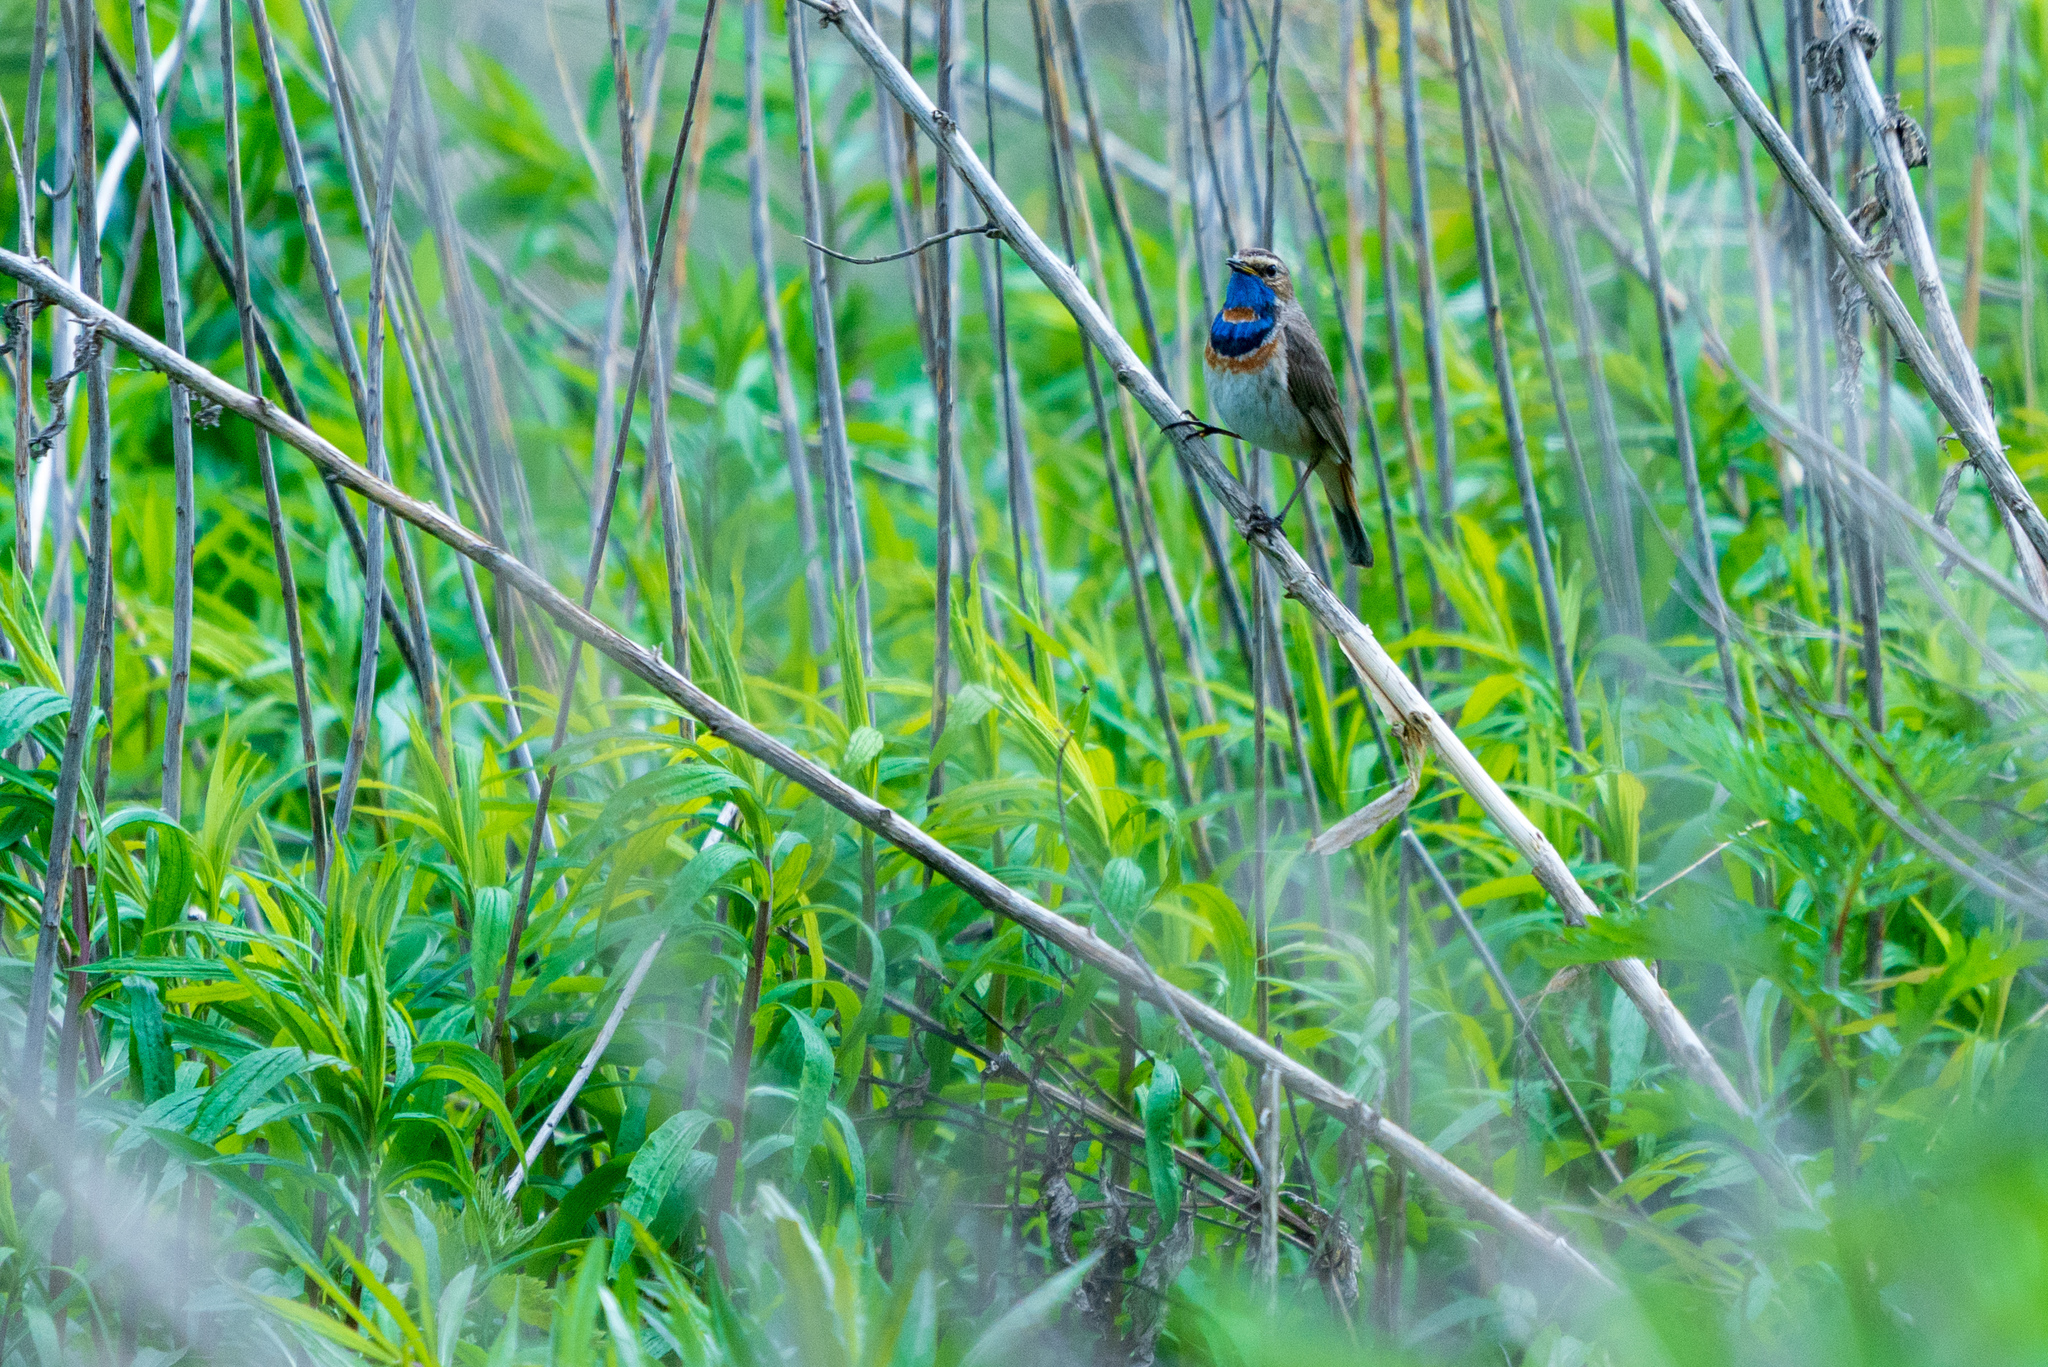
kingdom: Animalia
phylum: Chordata
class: Aves
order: Passeriformes
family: Muscicapidae
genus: Luscinia
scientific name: Luscinia svecica
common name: Bluethroat
